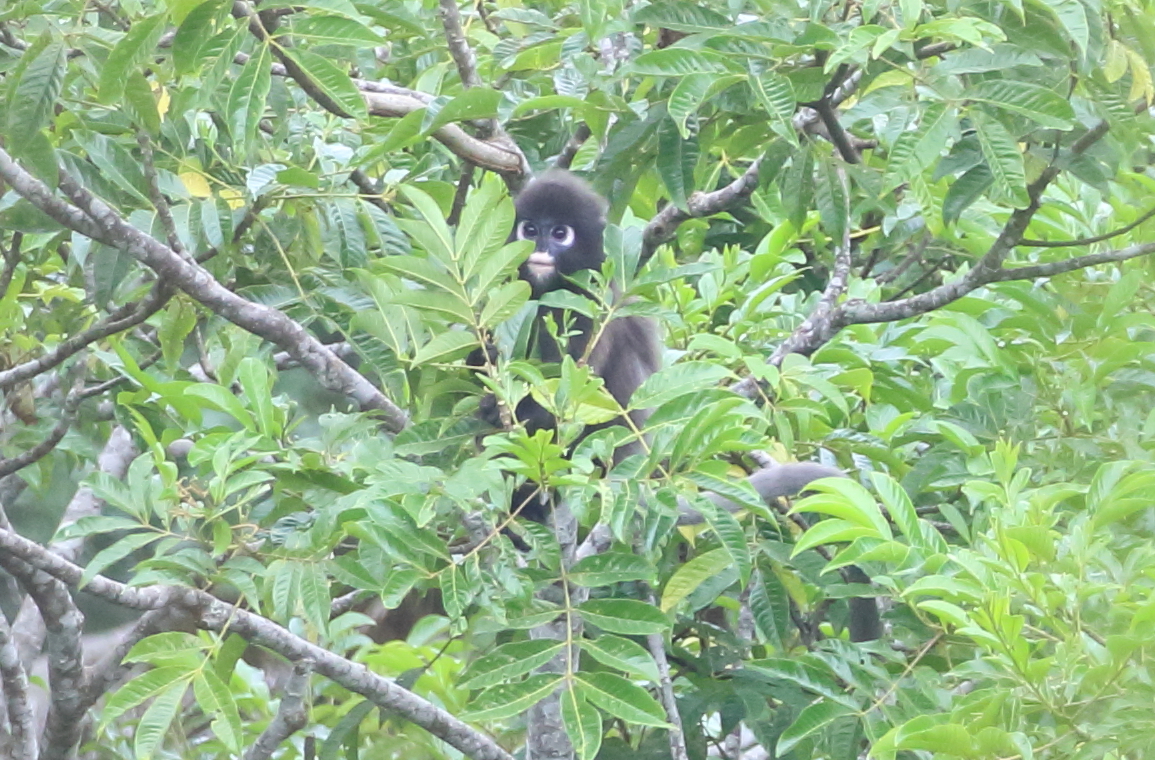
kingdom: Animalia
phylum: Chordata
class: Mammalia
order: Primates
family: Cercopithecidae
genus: Trachypithecus
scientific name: Trachypithecus obscurus
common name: Dusky leaf-monkey
